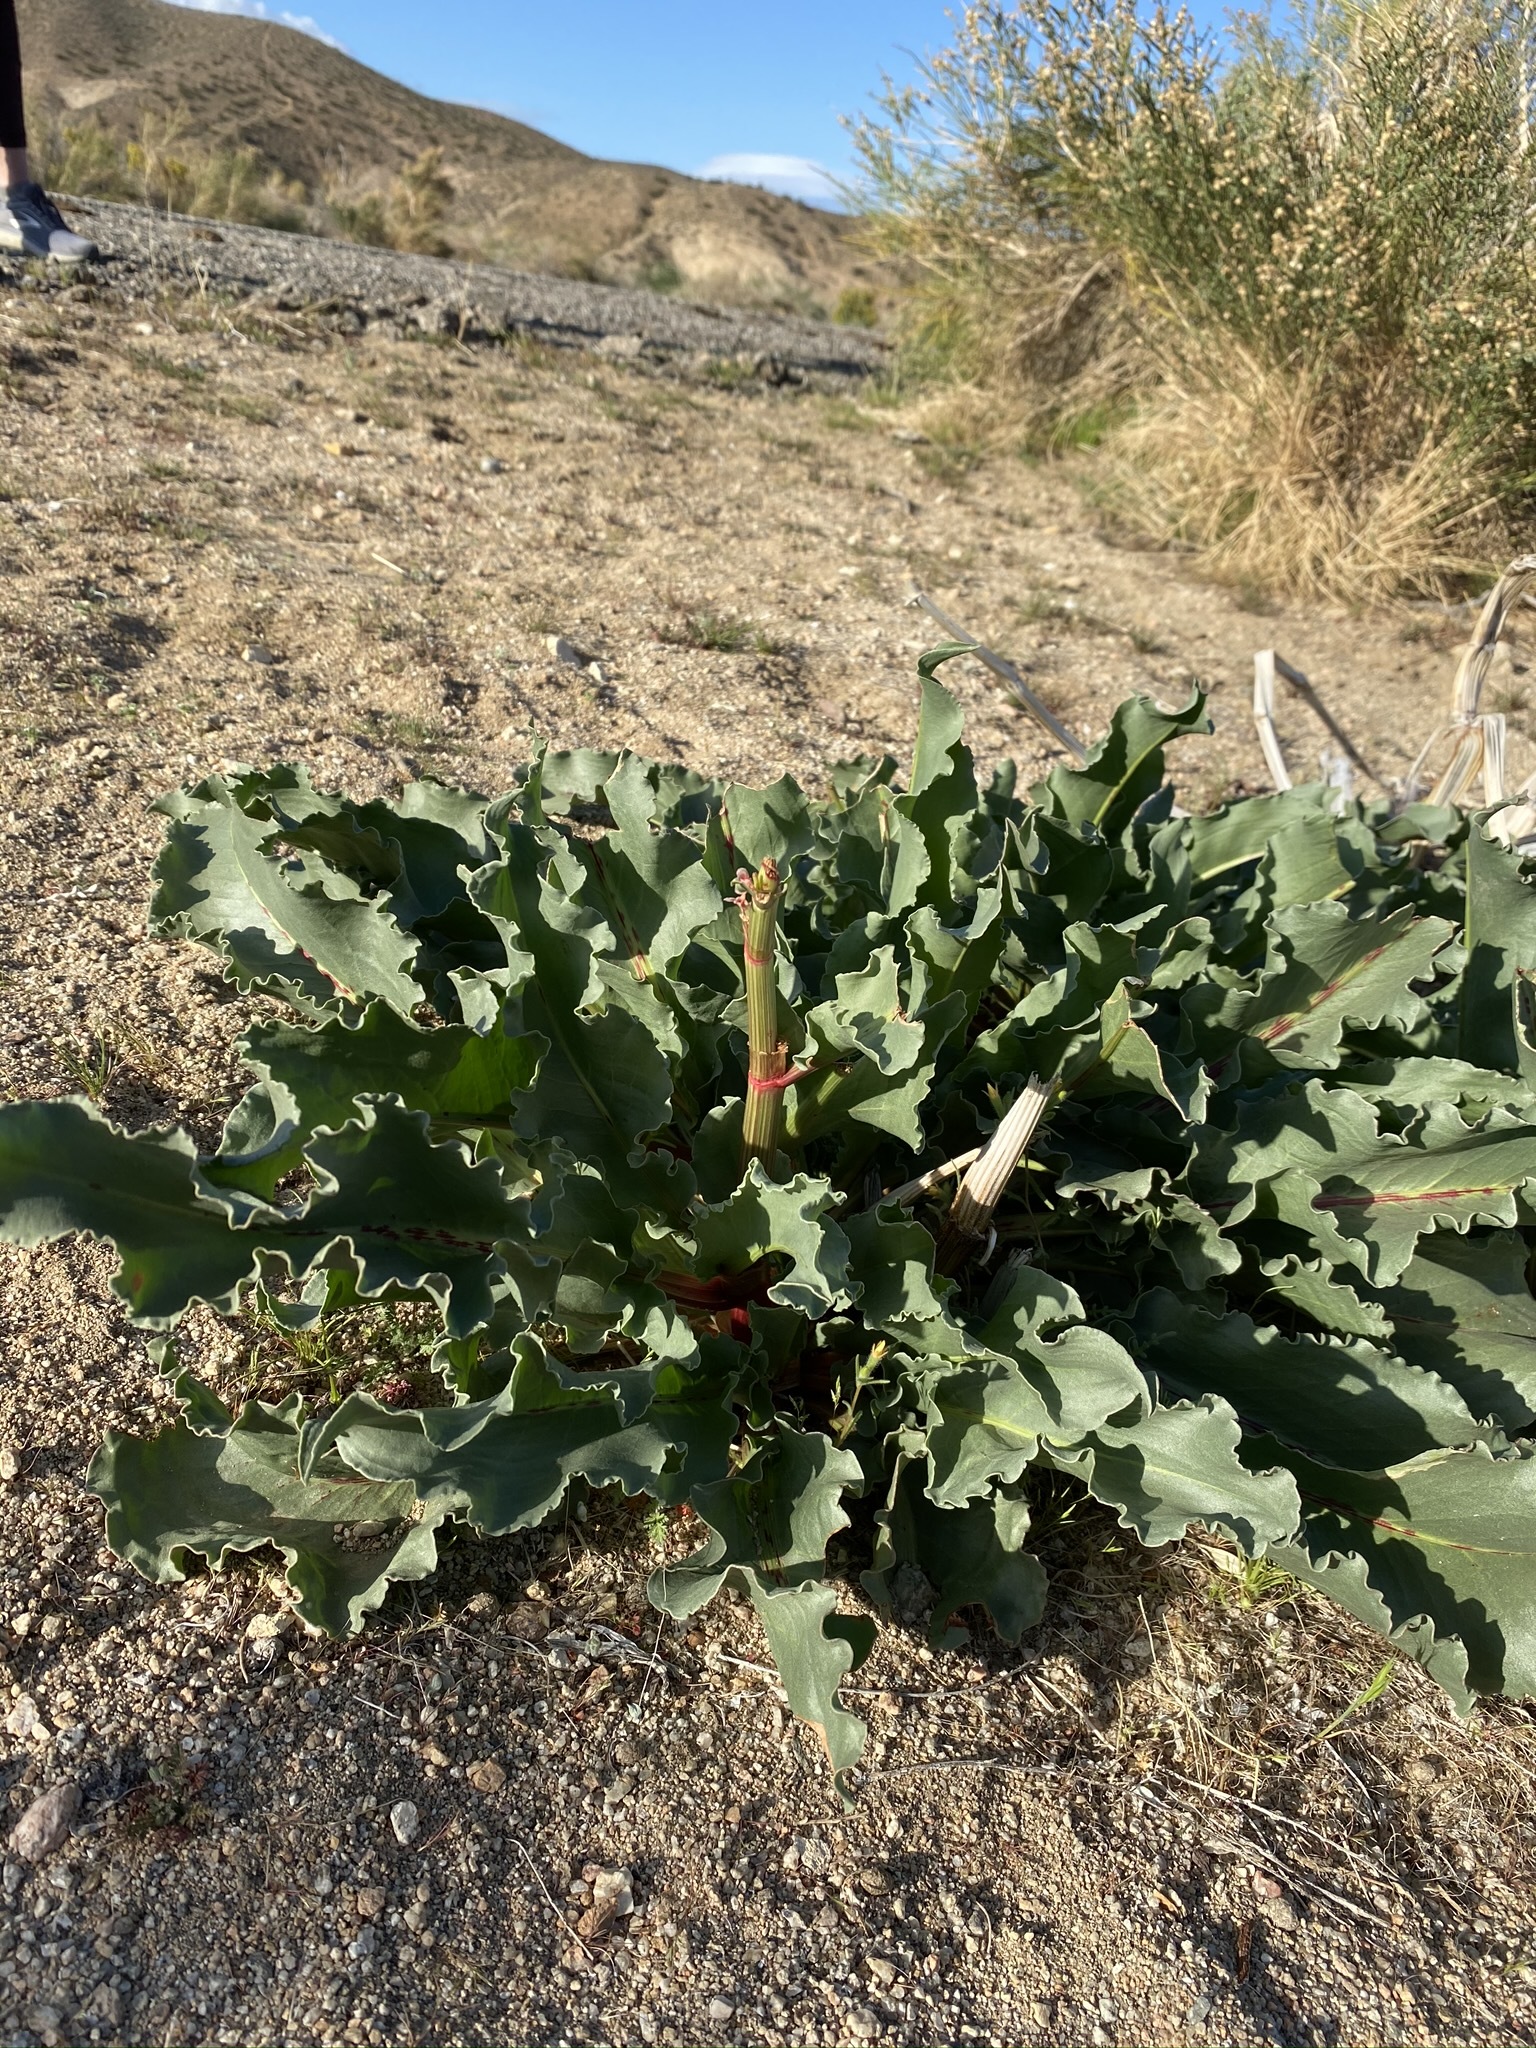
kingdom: Plantae
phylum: Tracheophyta
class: Magnoliopsida
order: Caryophyllales
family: Polygonaceae
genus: Rumex
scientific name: Rumex hymenosepalus
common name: Ganagra
